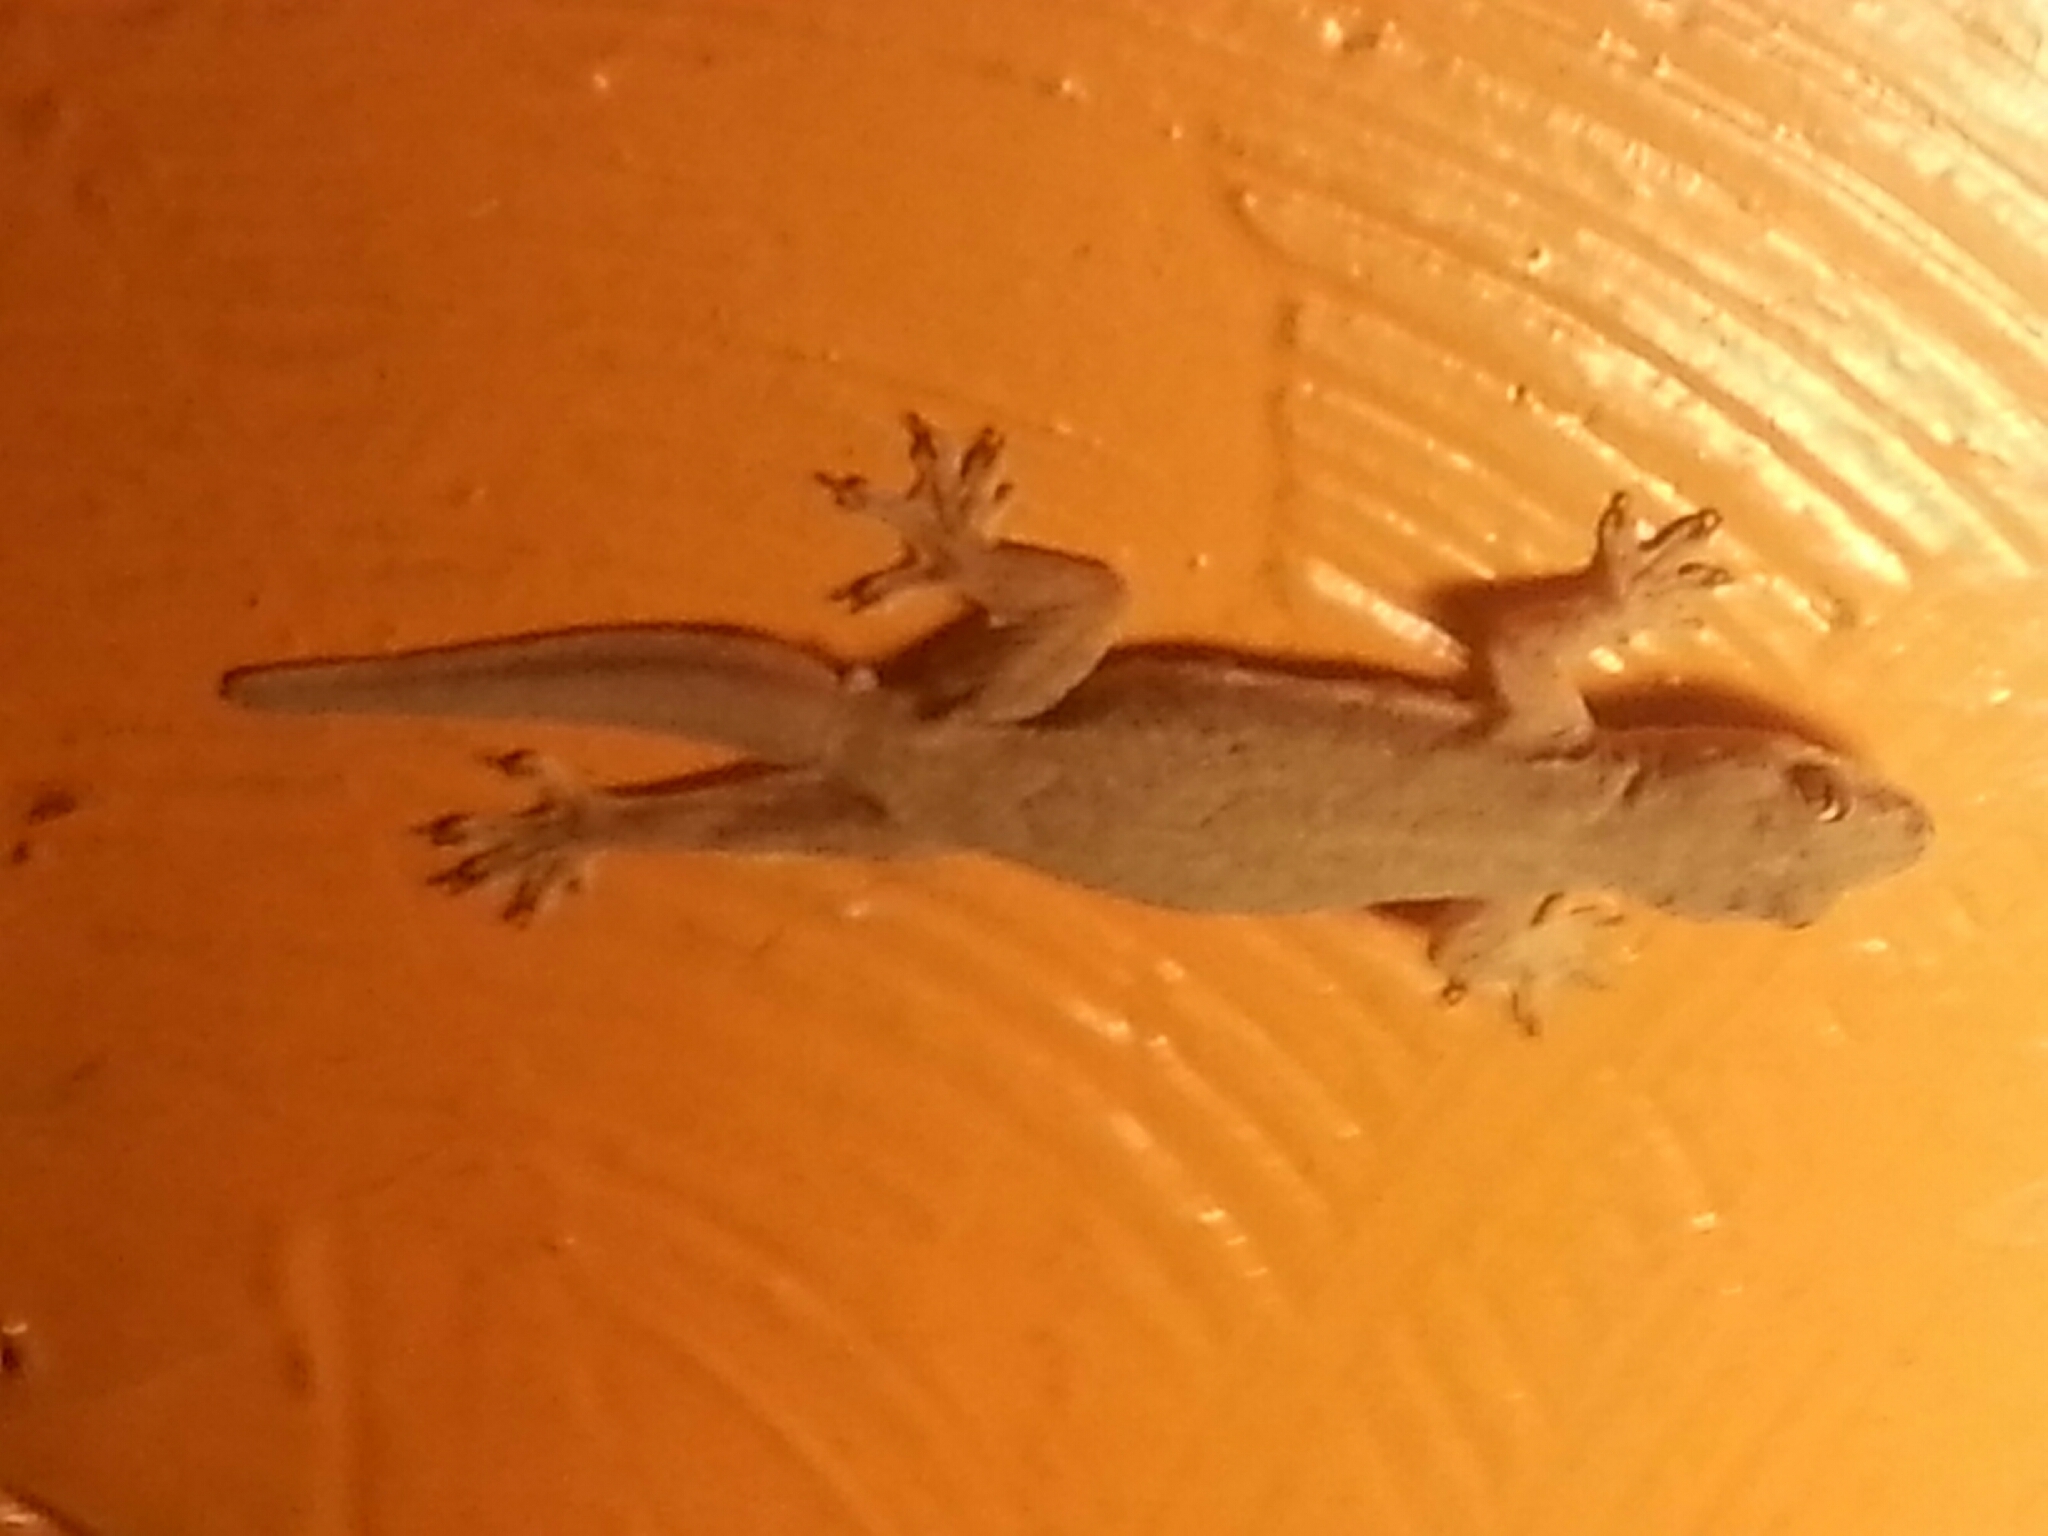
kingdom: Animalia
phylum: Chordata
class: Squamata
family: Gekkonidae
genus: Hemidactylus
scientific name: Hemidactylus platyurus
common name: Flat-tailed house gecko
